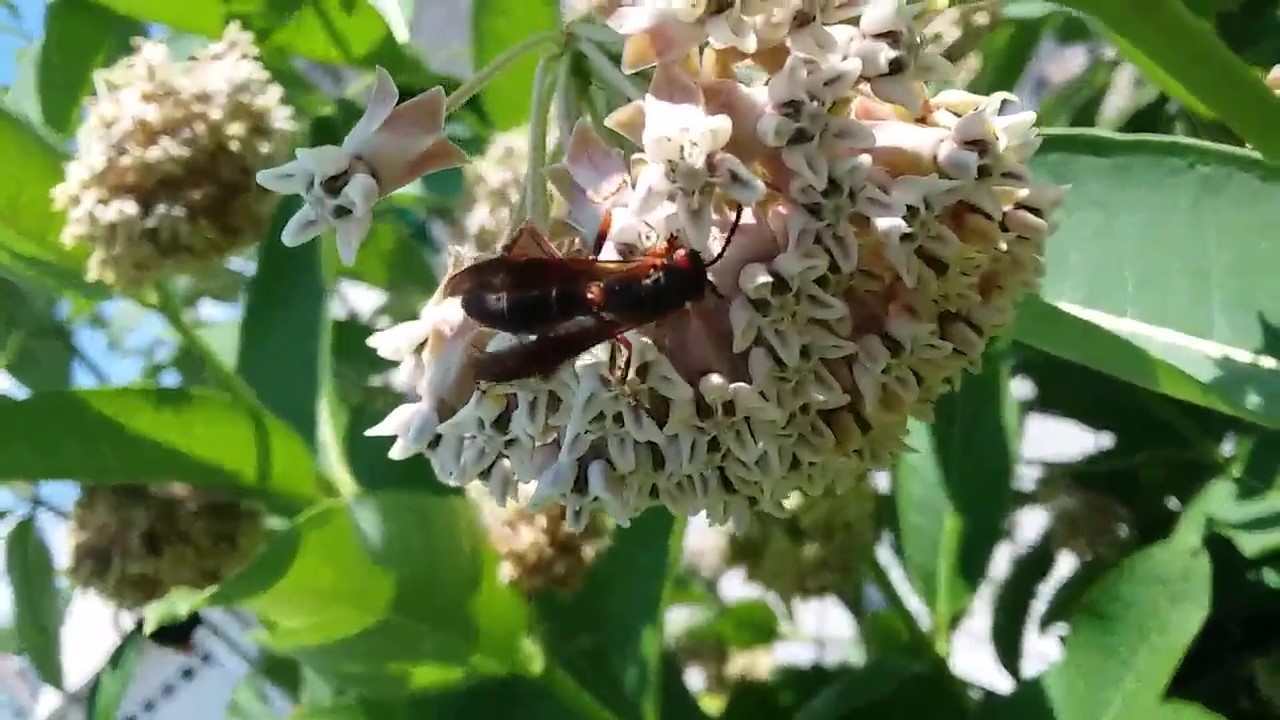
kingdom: Animalia
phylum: Arthropoda
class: Insecta
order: Hymenoptera
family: Vespidae
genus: Fuscopolistes
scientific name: Fuscopolistes
